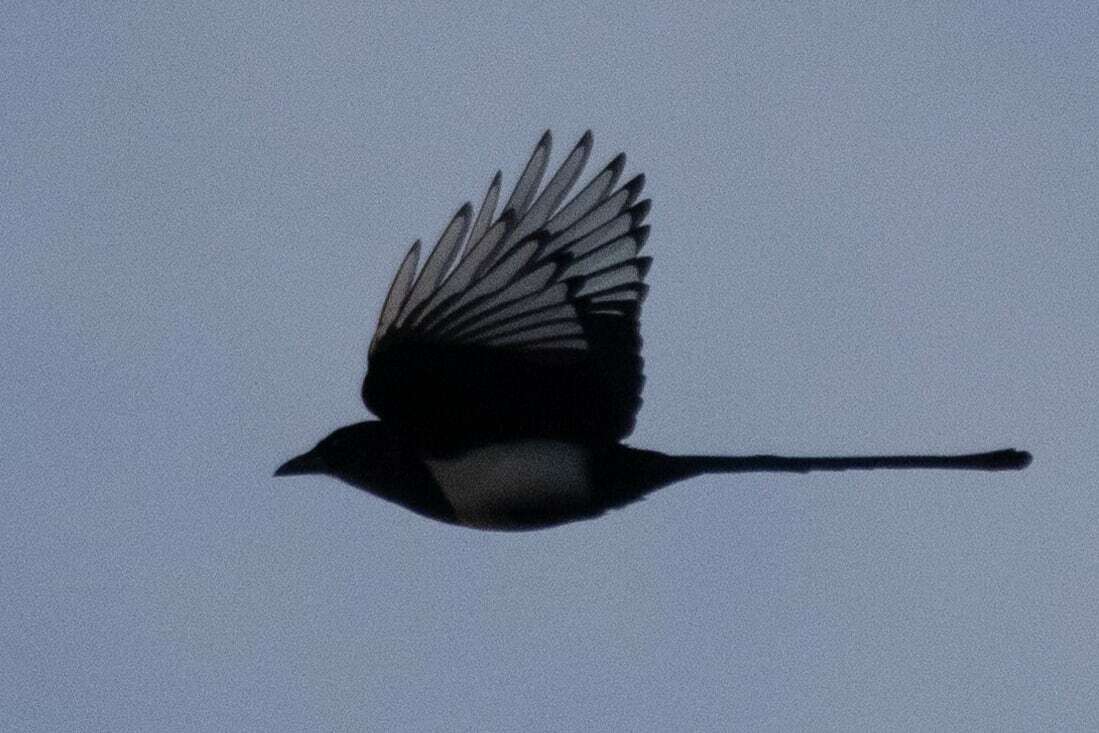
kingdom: Animalia
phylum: Chordata
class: Aves
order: Passeriformes
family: Corvidae
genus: Pica
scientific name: Pica pica
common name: Eurasian magpie
